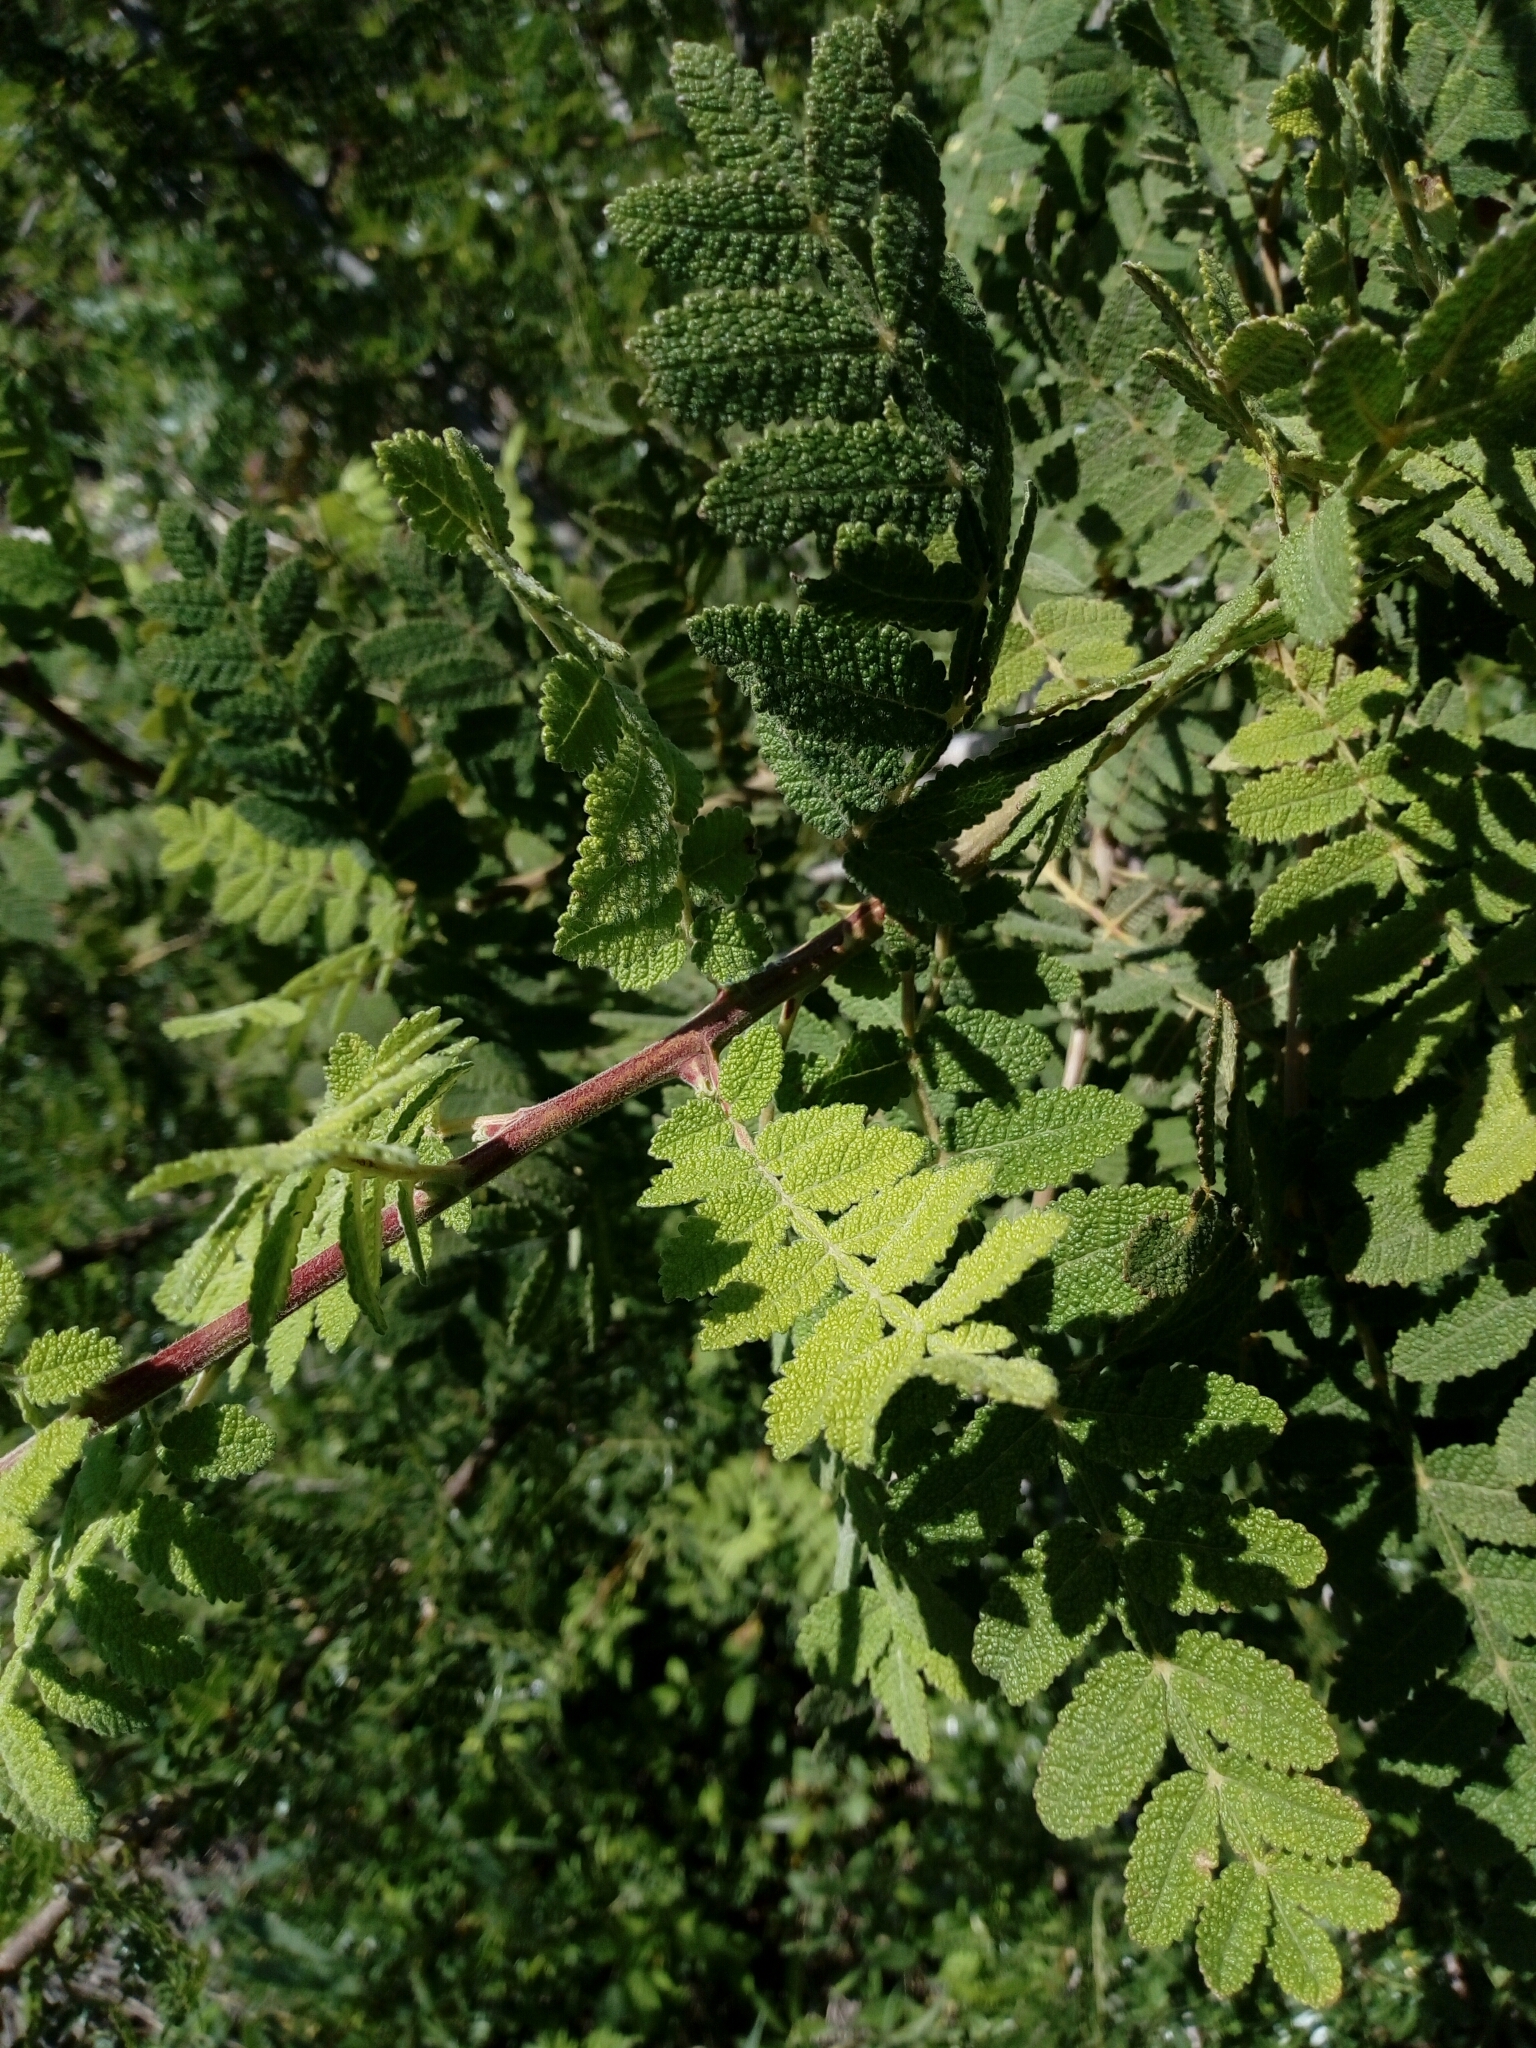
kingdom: Plantae
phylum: Tracheophyta
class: Magnoliopsida
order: Sapindales
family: Burseraceae
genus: Bursera
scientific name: Bursera copallifera
